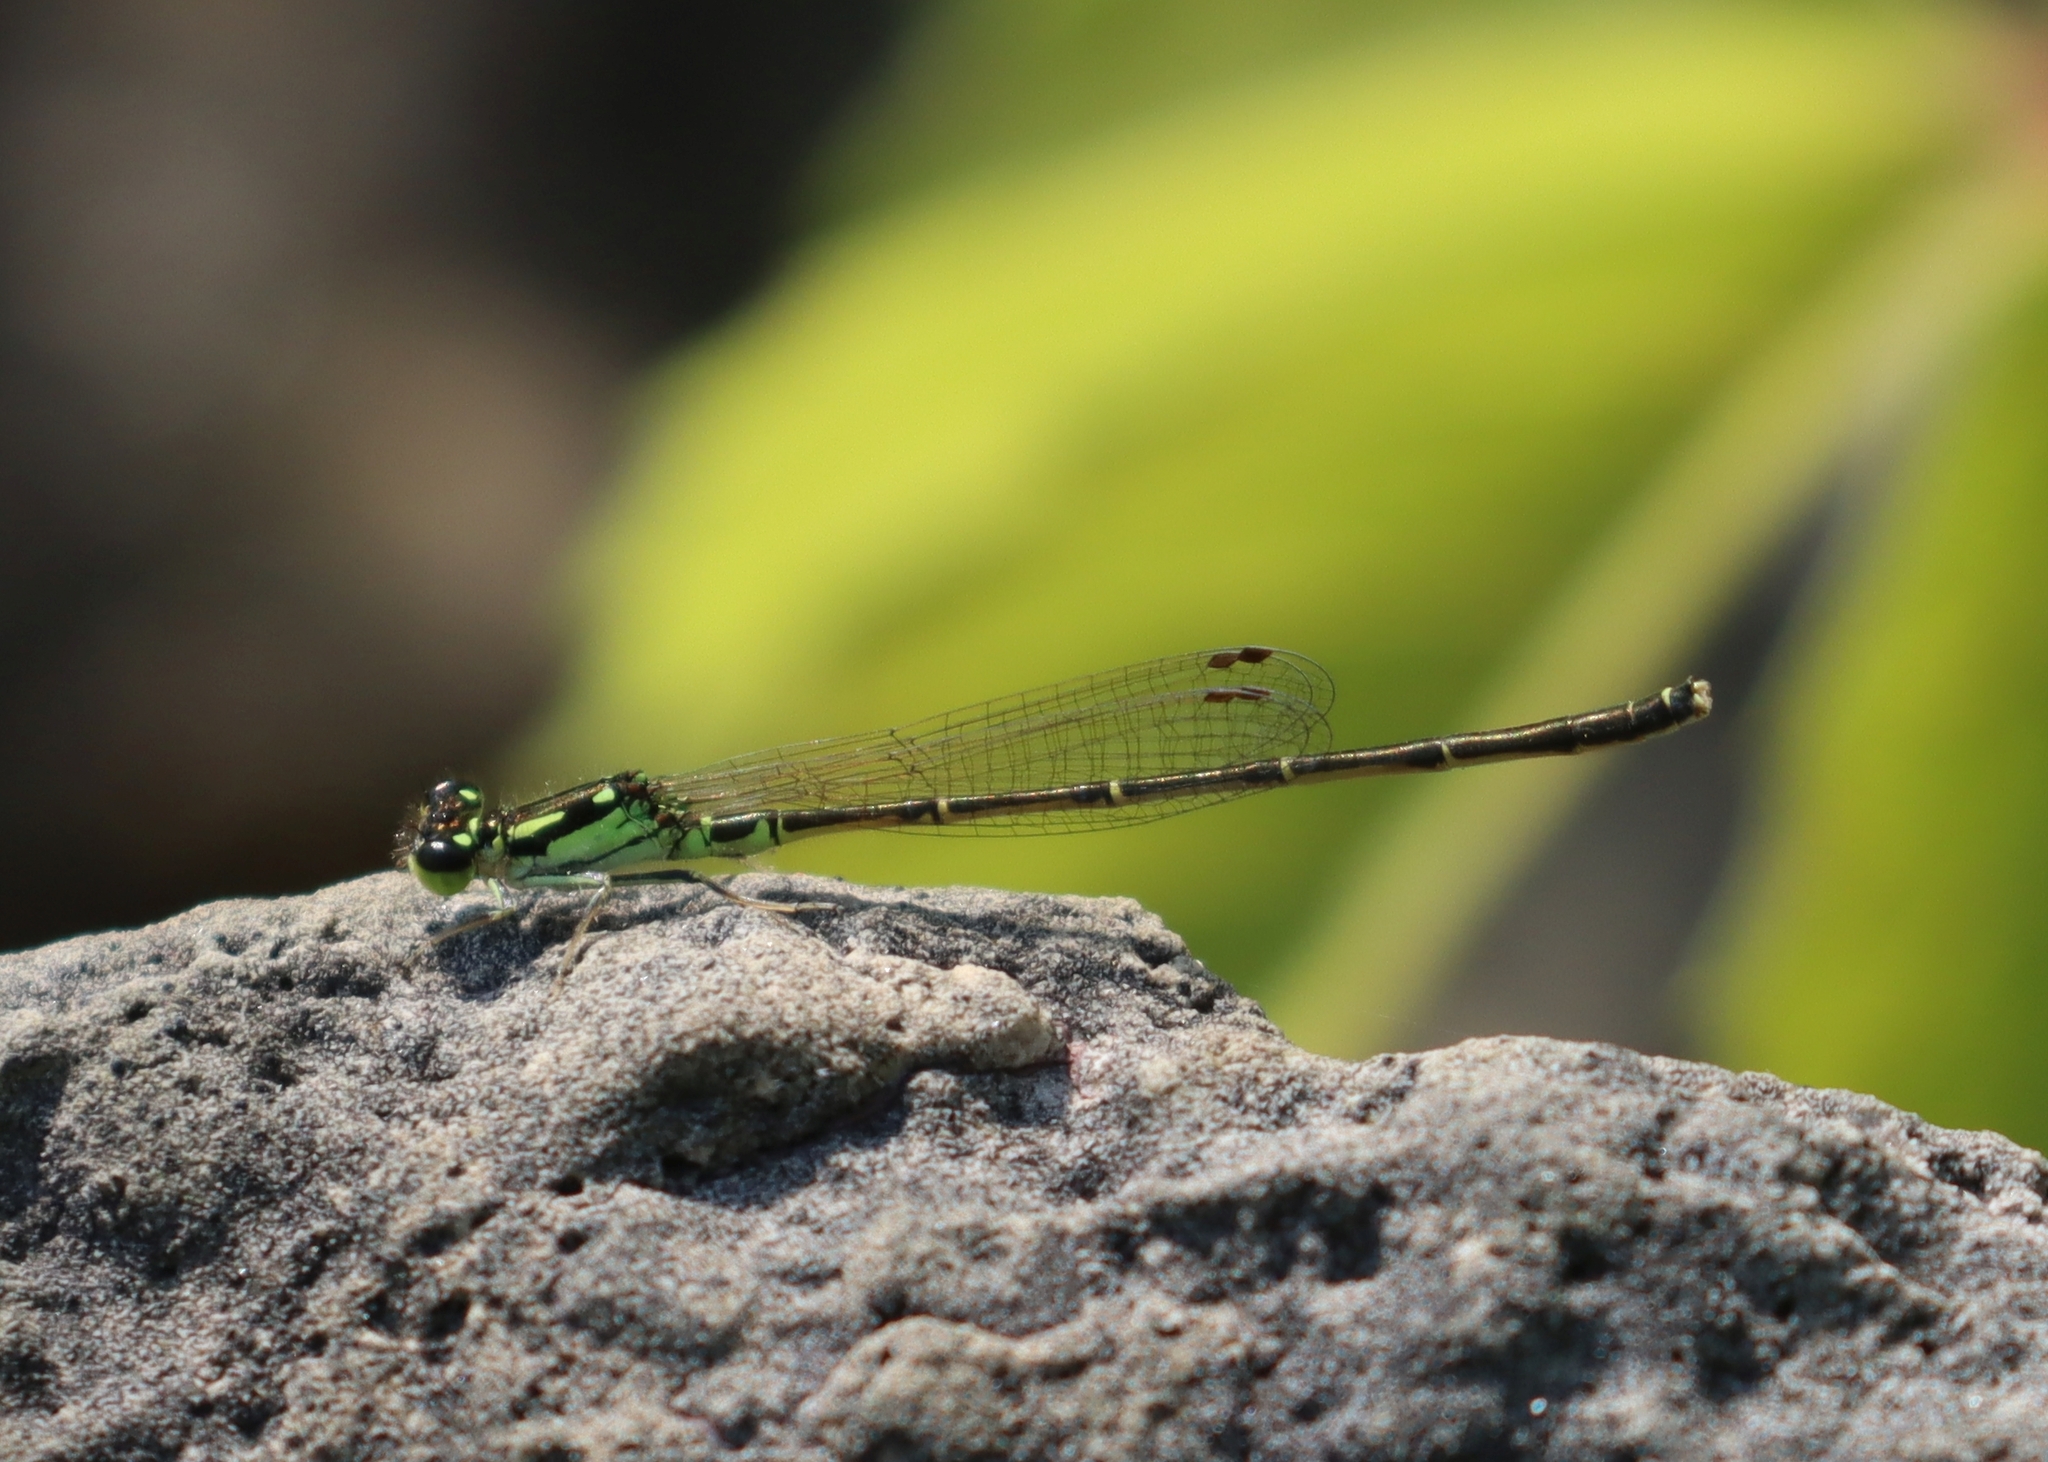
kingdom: Animalia
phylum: Arthropoda
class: Insecta
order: Odonata
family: Coenagrionidae
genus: Ischnura
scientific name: Ischnura posita
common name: Fragile forktail
